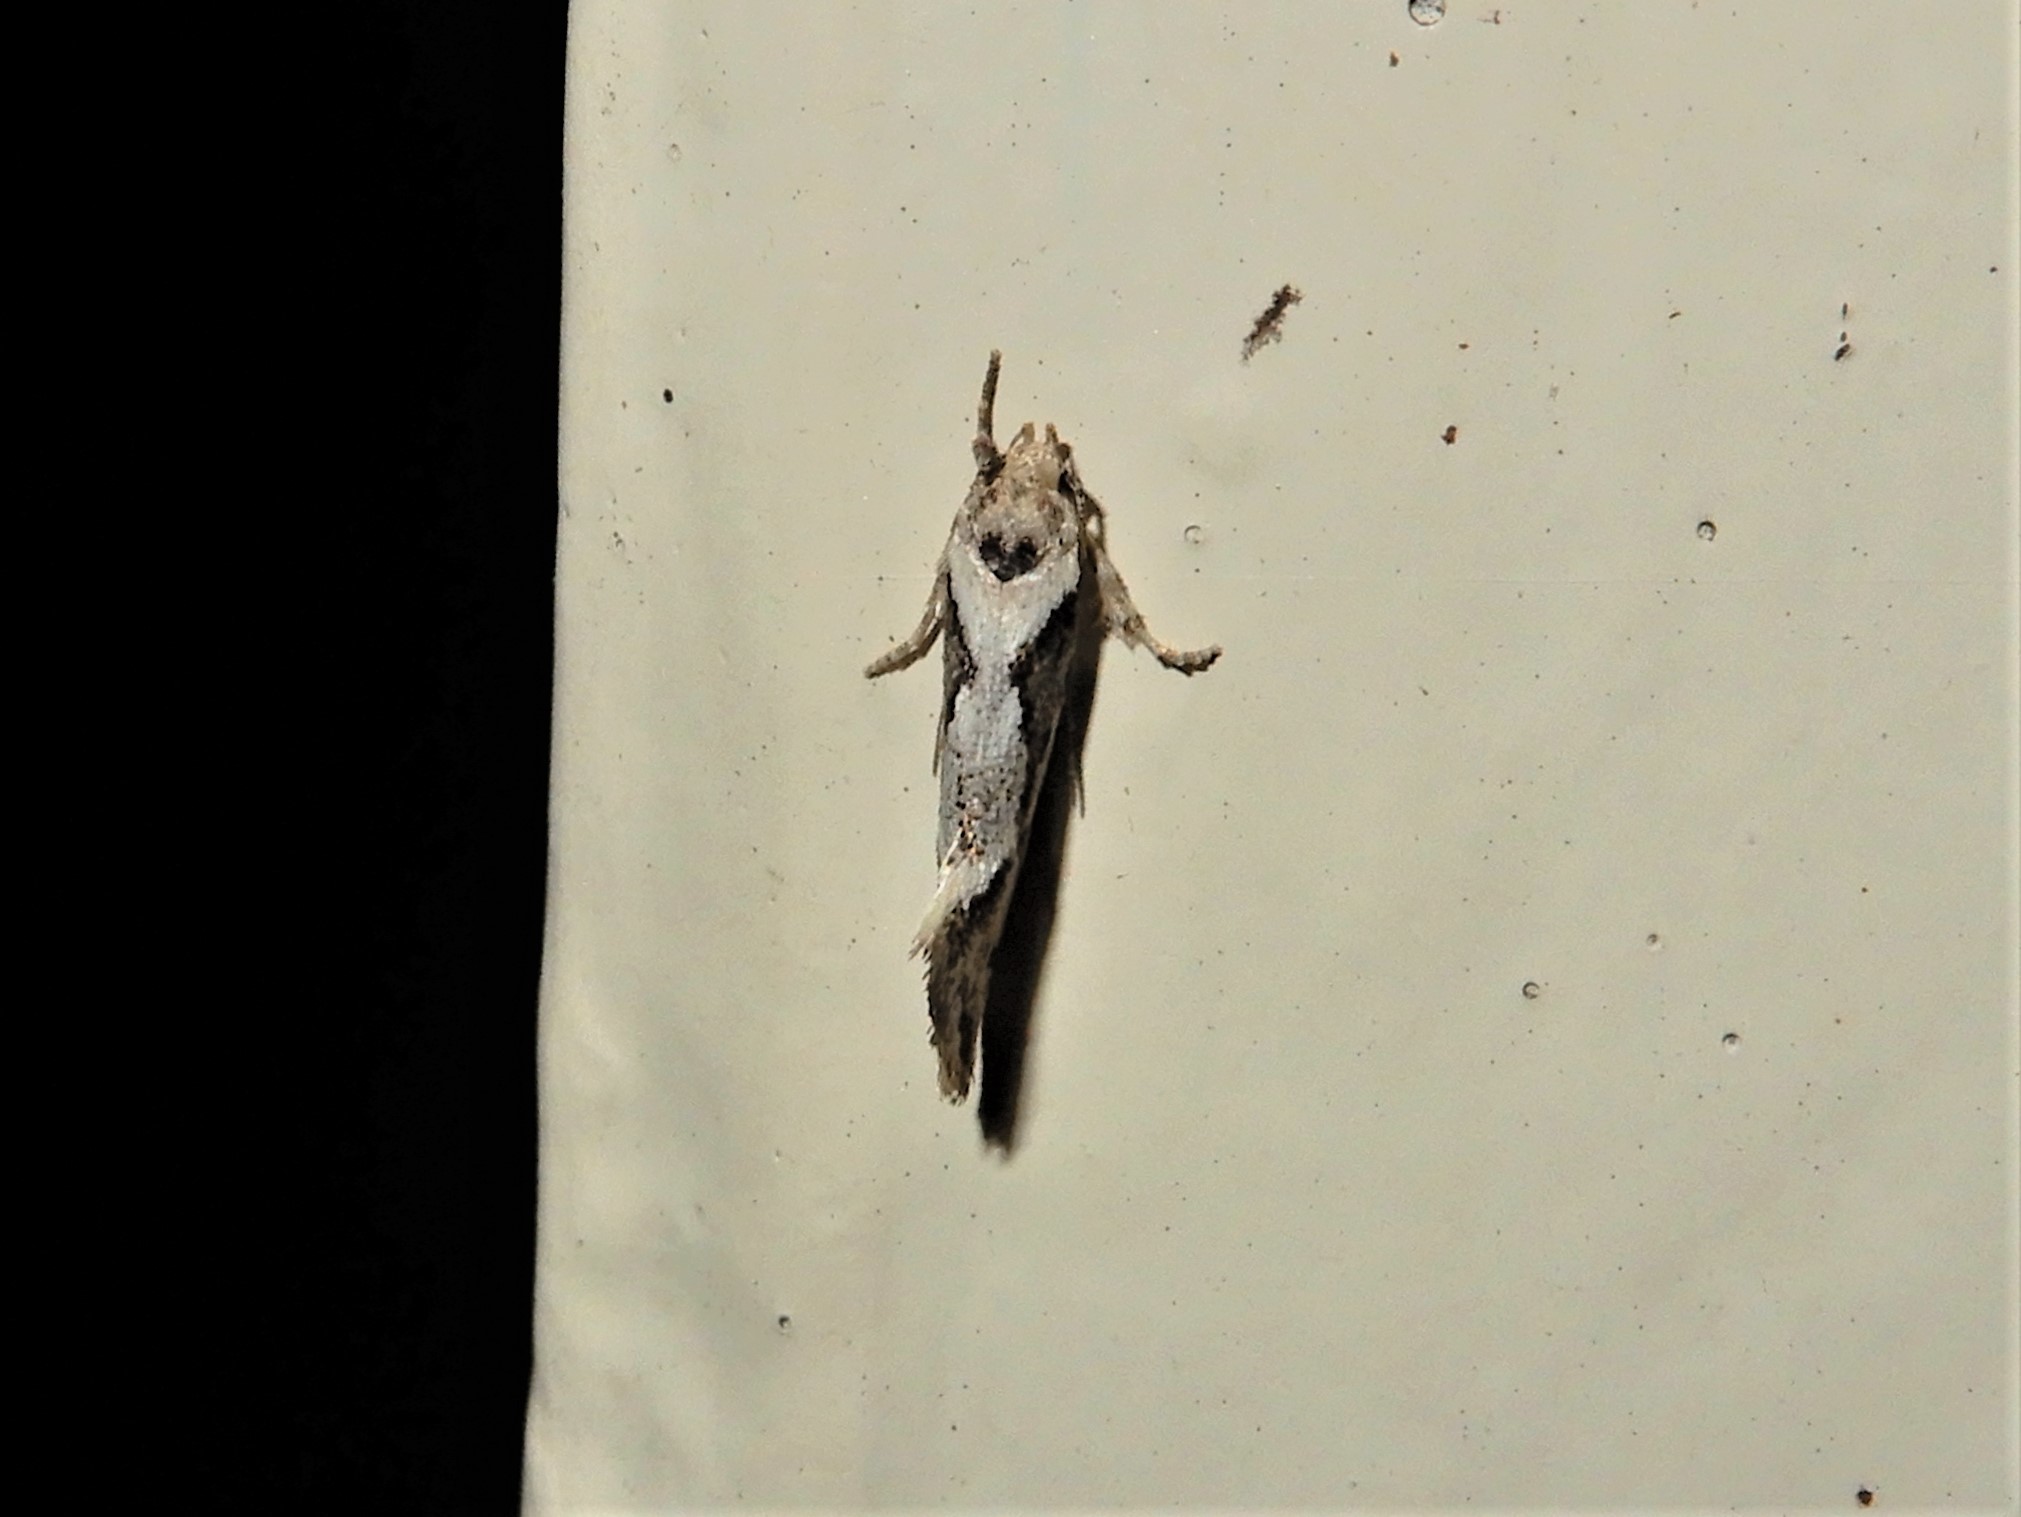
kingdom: Animalia
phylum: Arthropoda
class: Insecta
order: Lepidoptera
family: Oecophoridae
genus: Tingena
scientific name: Tingena hemimochla
